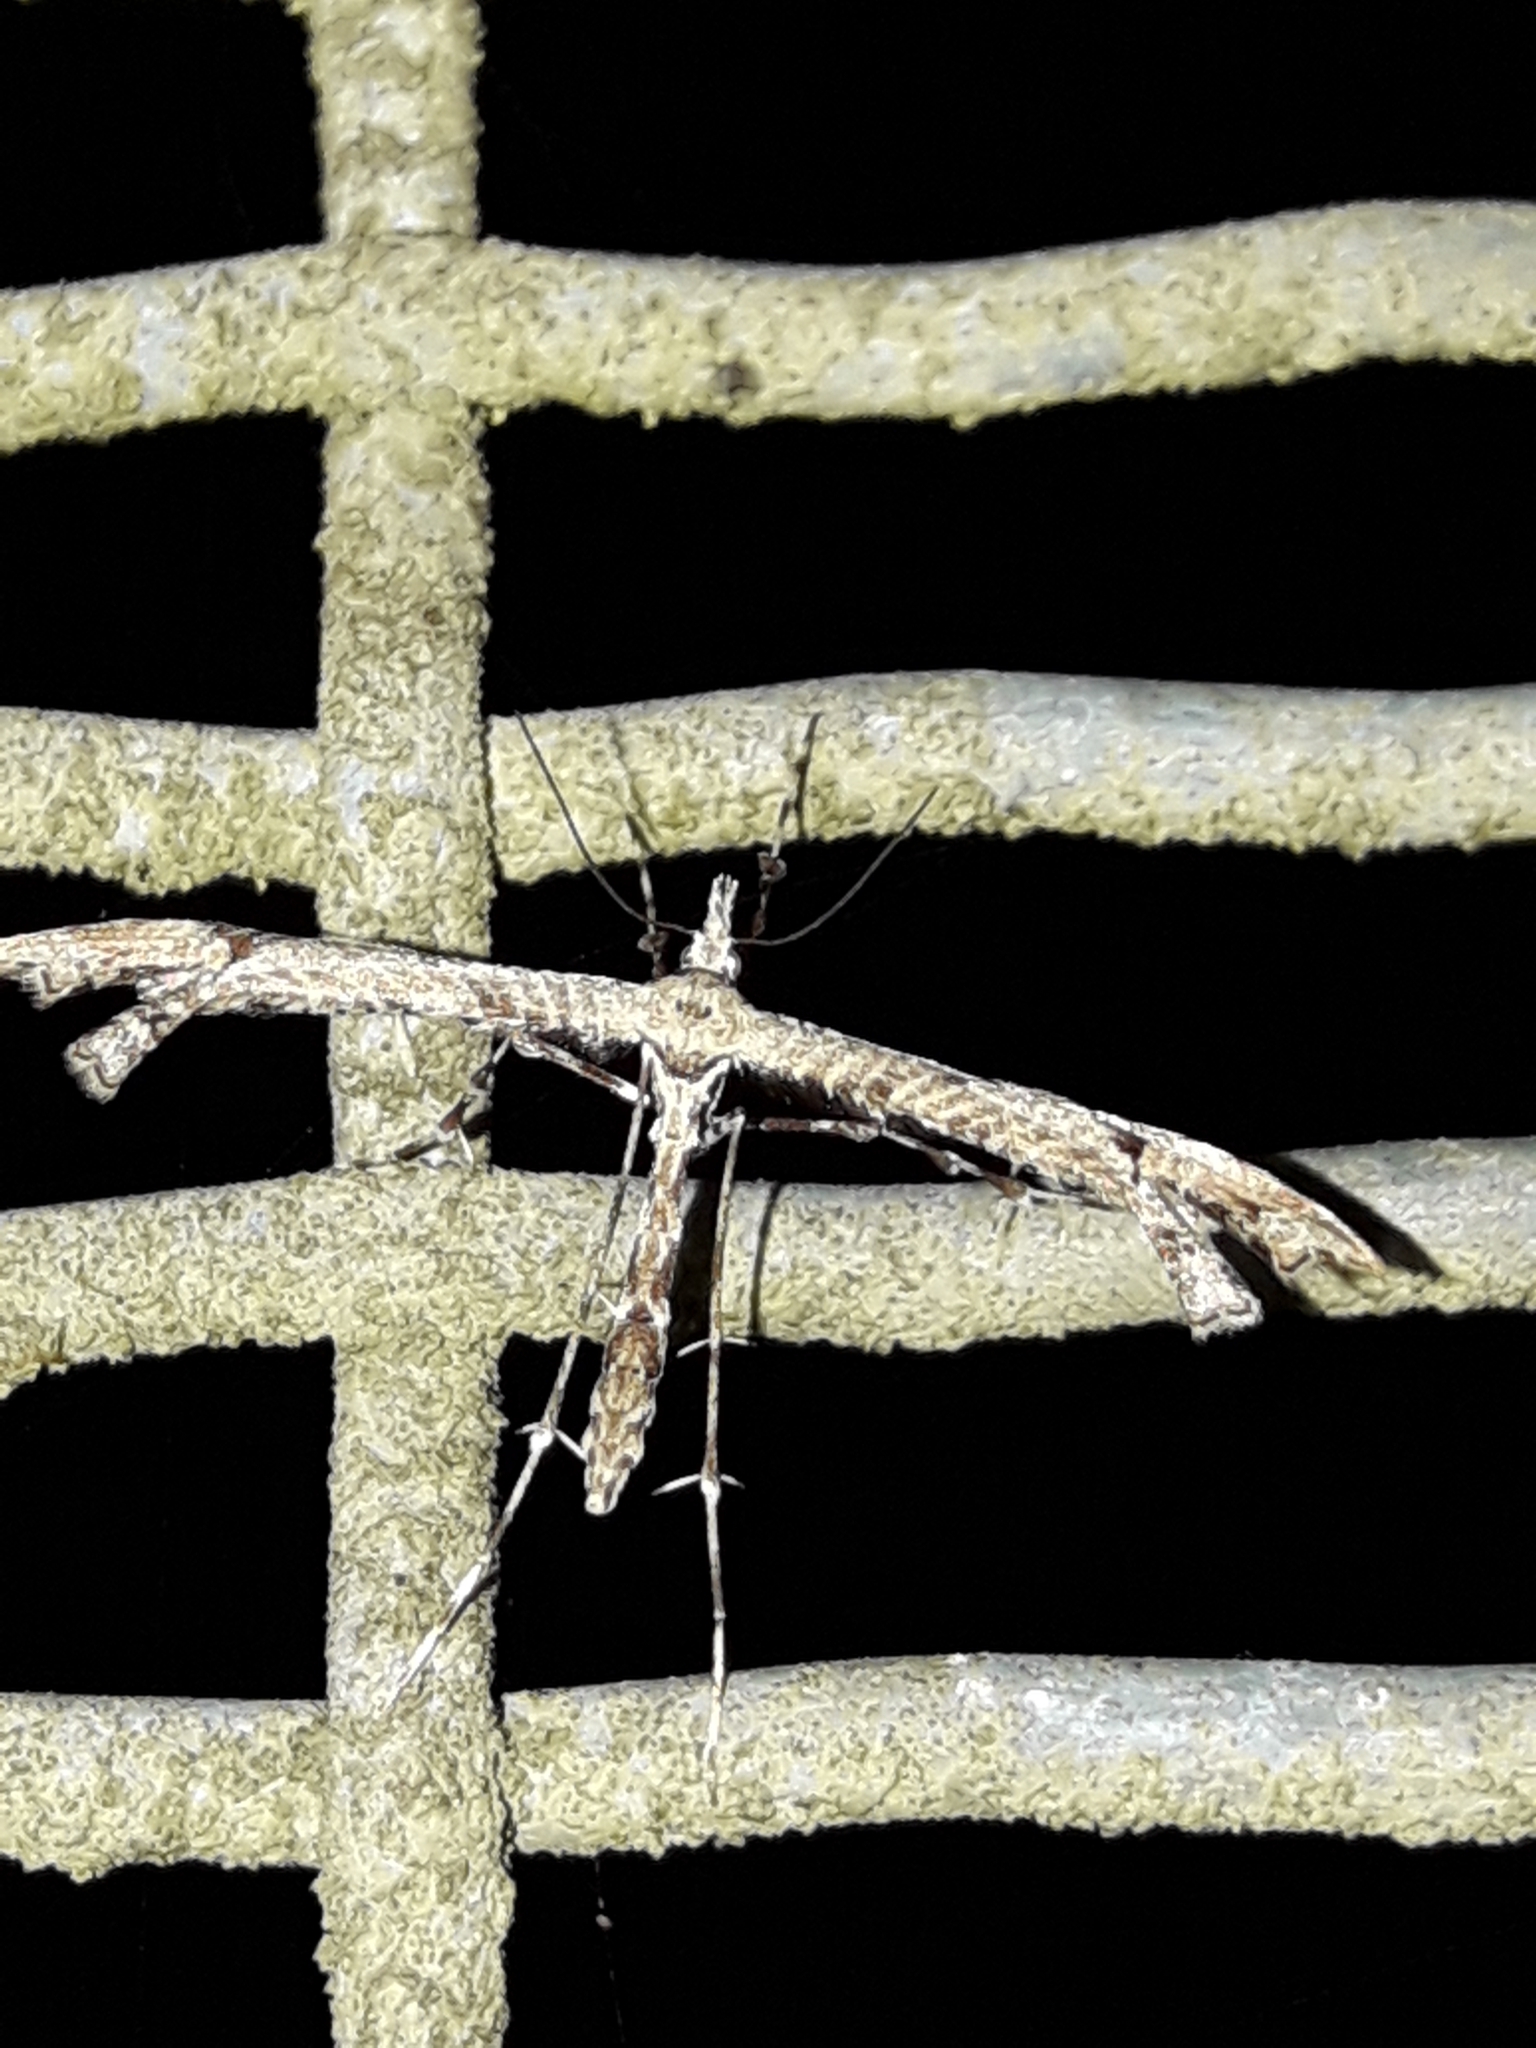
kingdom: Animalia
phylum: Arthropoda
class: Insecta
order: Lepidoptera
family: Pterophoridae
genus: Amblyptilia
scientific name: Amblyptilia repletalis
